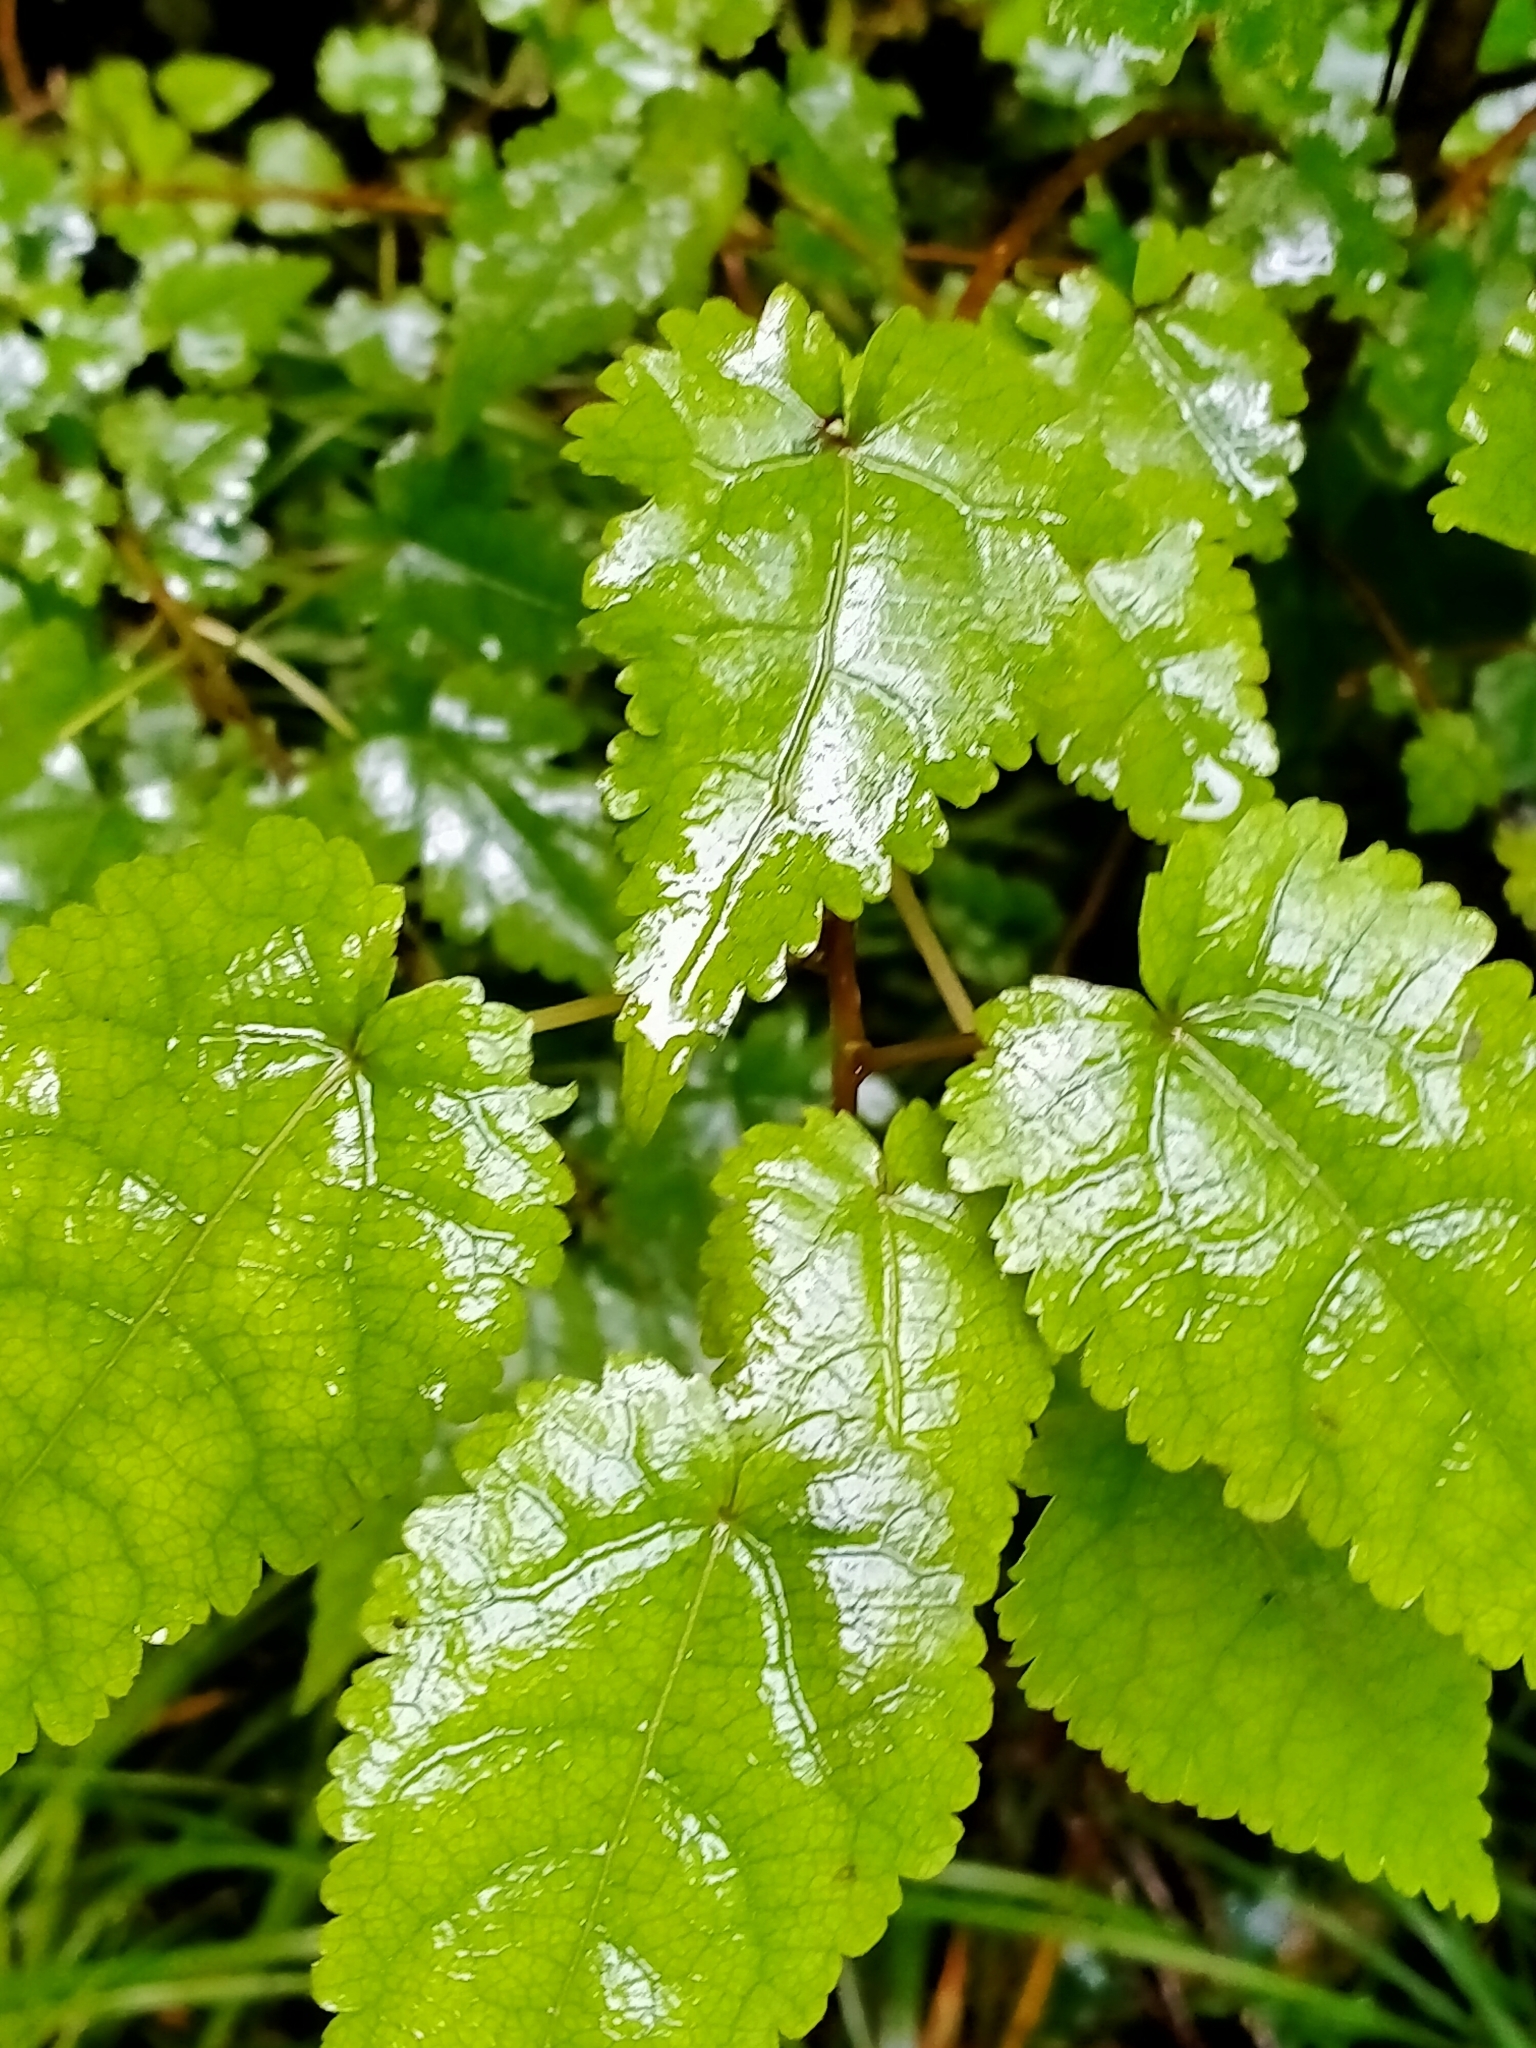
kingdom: Plantae
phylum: Tracheophyta
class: Magnoliopsida
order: Malvales
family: Malvaceae
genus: Hoheria
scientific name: Hoheria glabrata
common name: Mountain-ribbon
